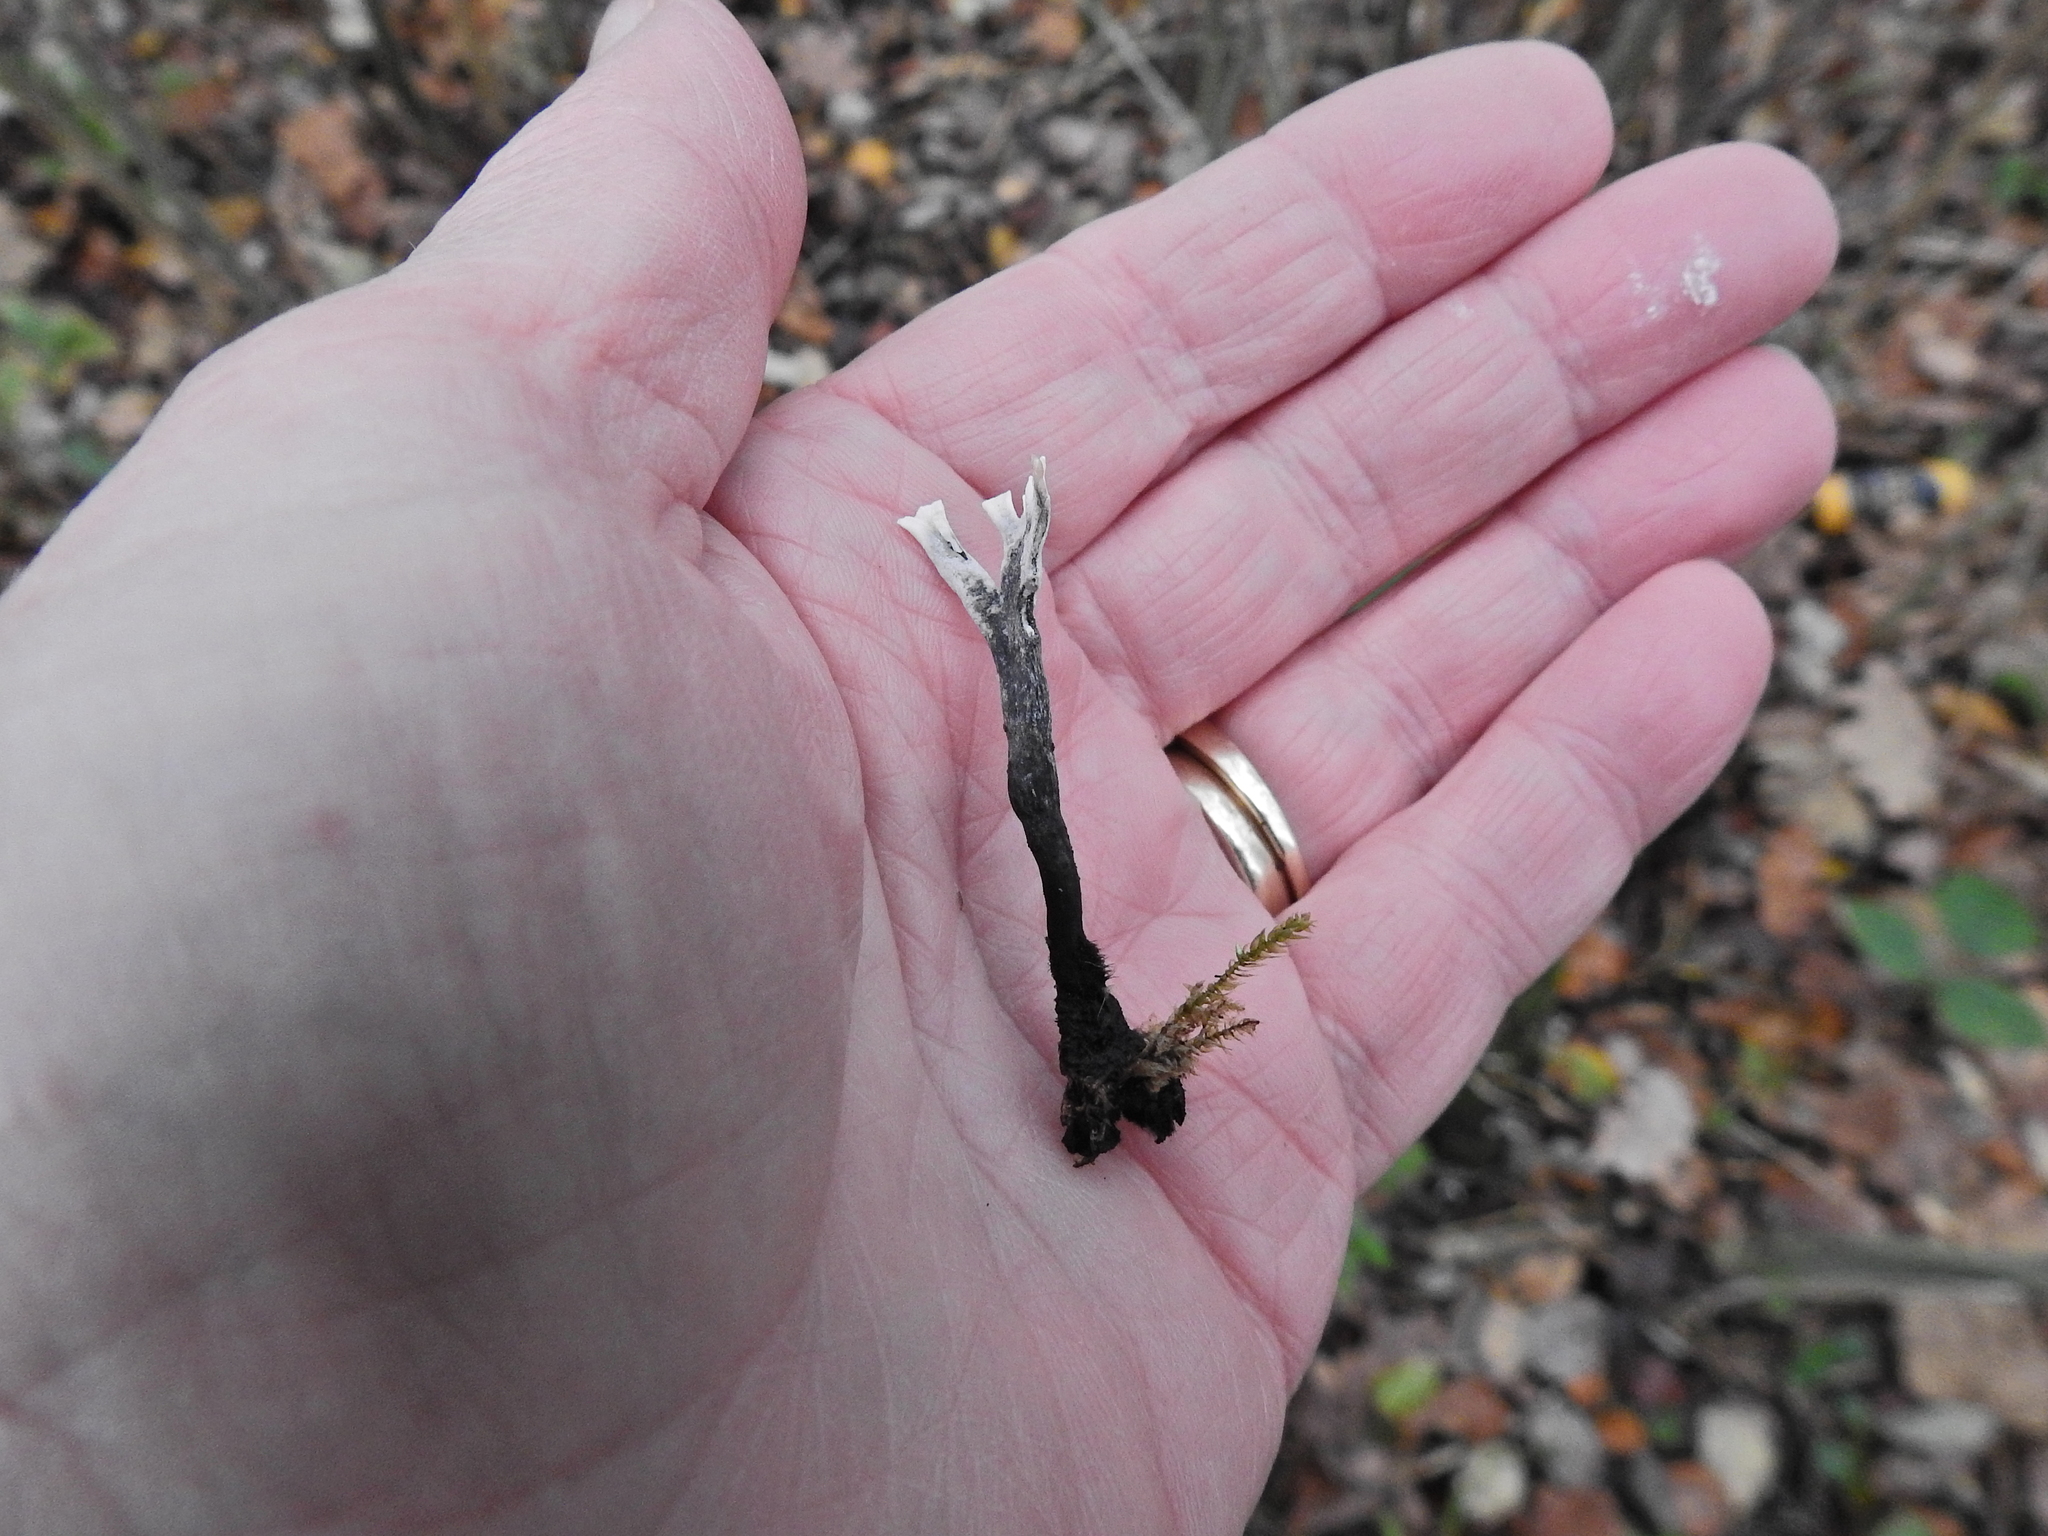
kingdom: Fungi
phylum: Ascomycota
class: Sordariomycetes
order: Xylariales
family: Xylariaceae
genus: Xylaria
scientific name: Xylaria hypoxylon
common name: Candle-snuff fungus
